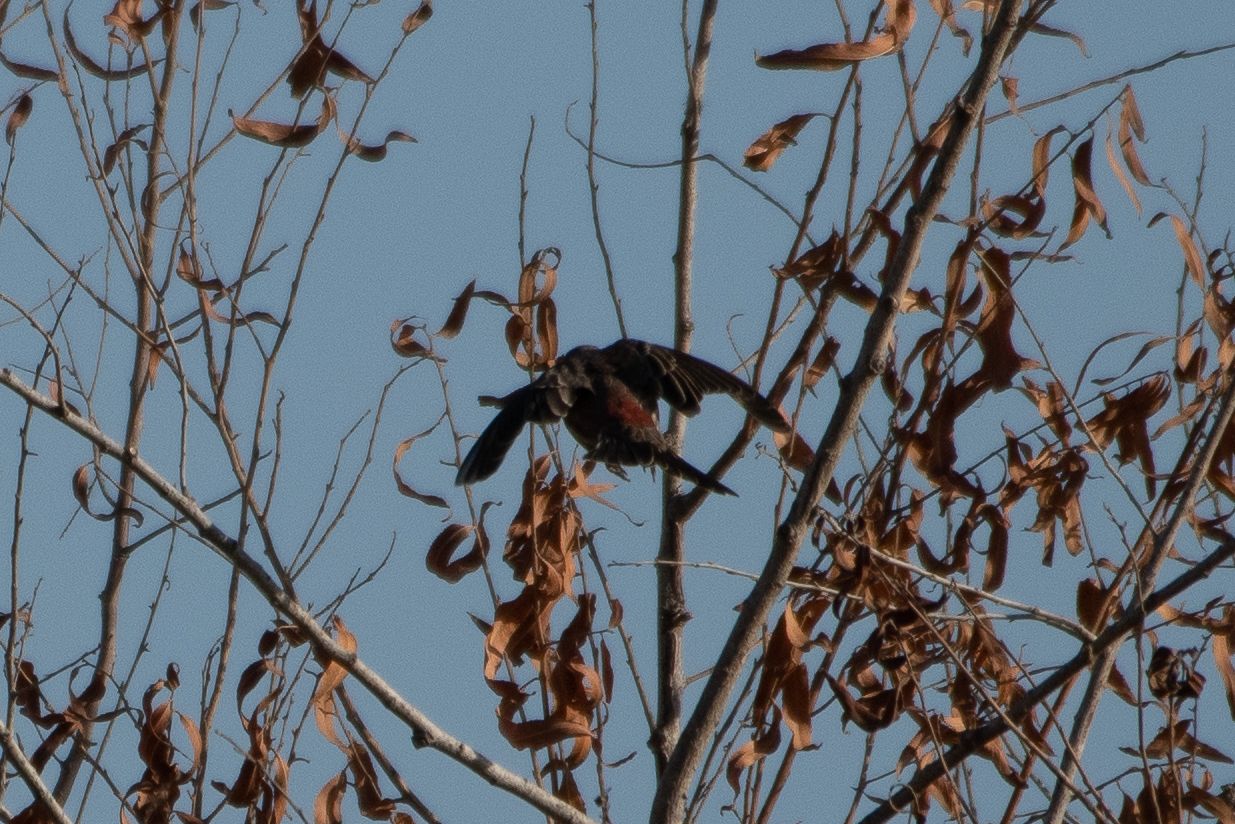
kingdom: Animalia
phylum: Chordata
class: Aves
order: Passeriformes
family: Fringillidae
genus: Haemorhous
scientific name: Haemorhous mexicanus
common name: House finch
